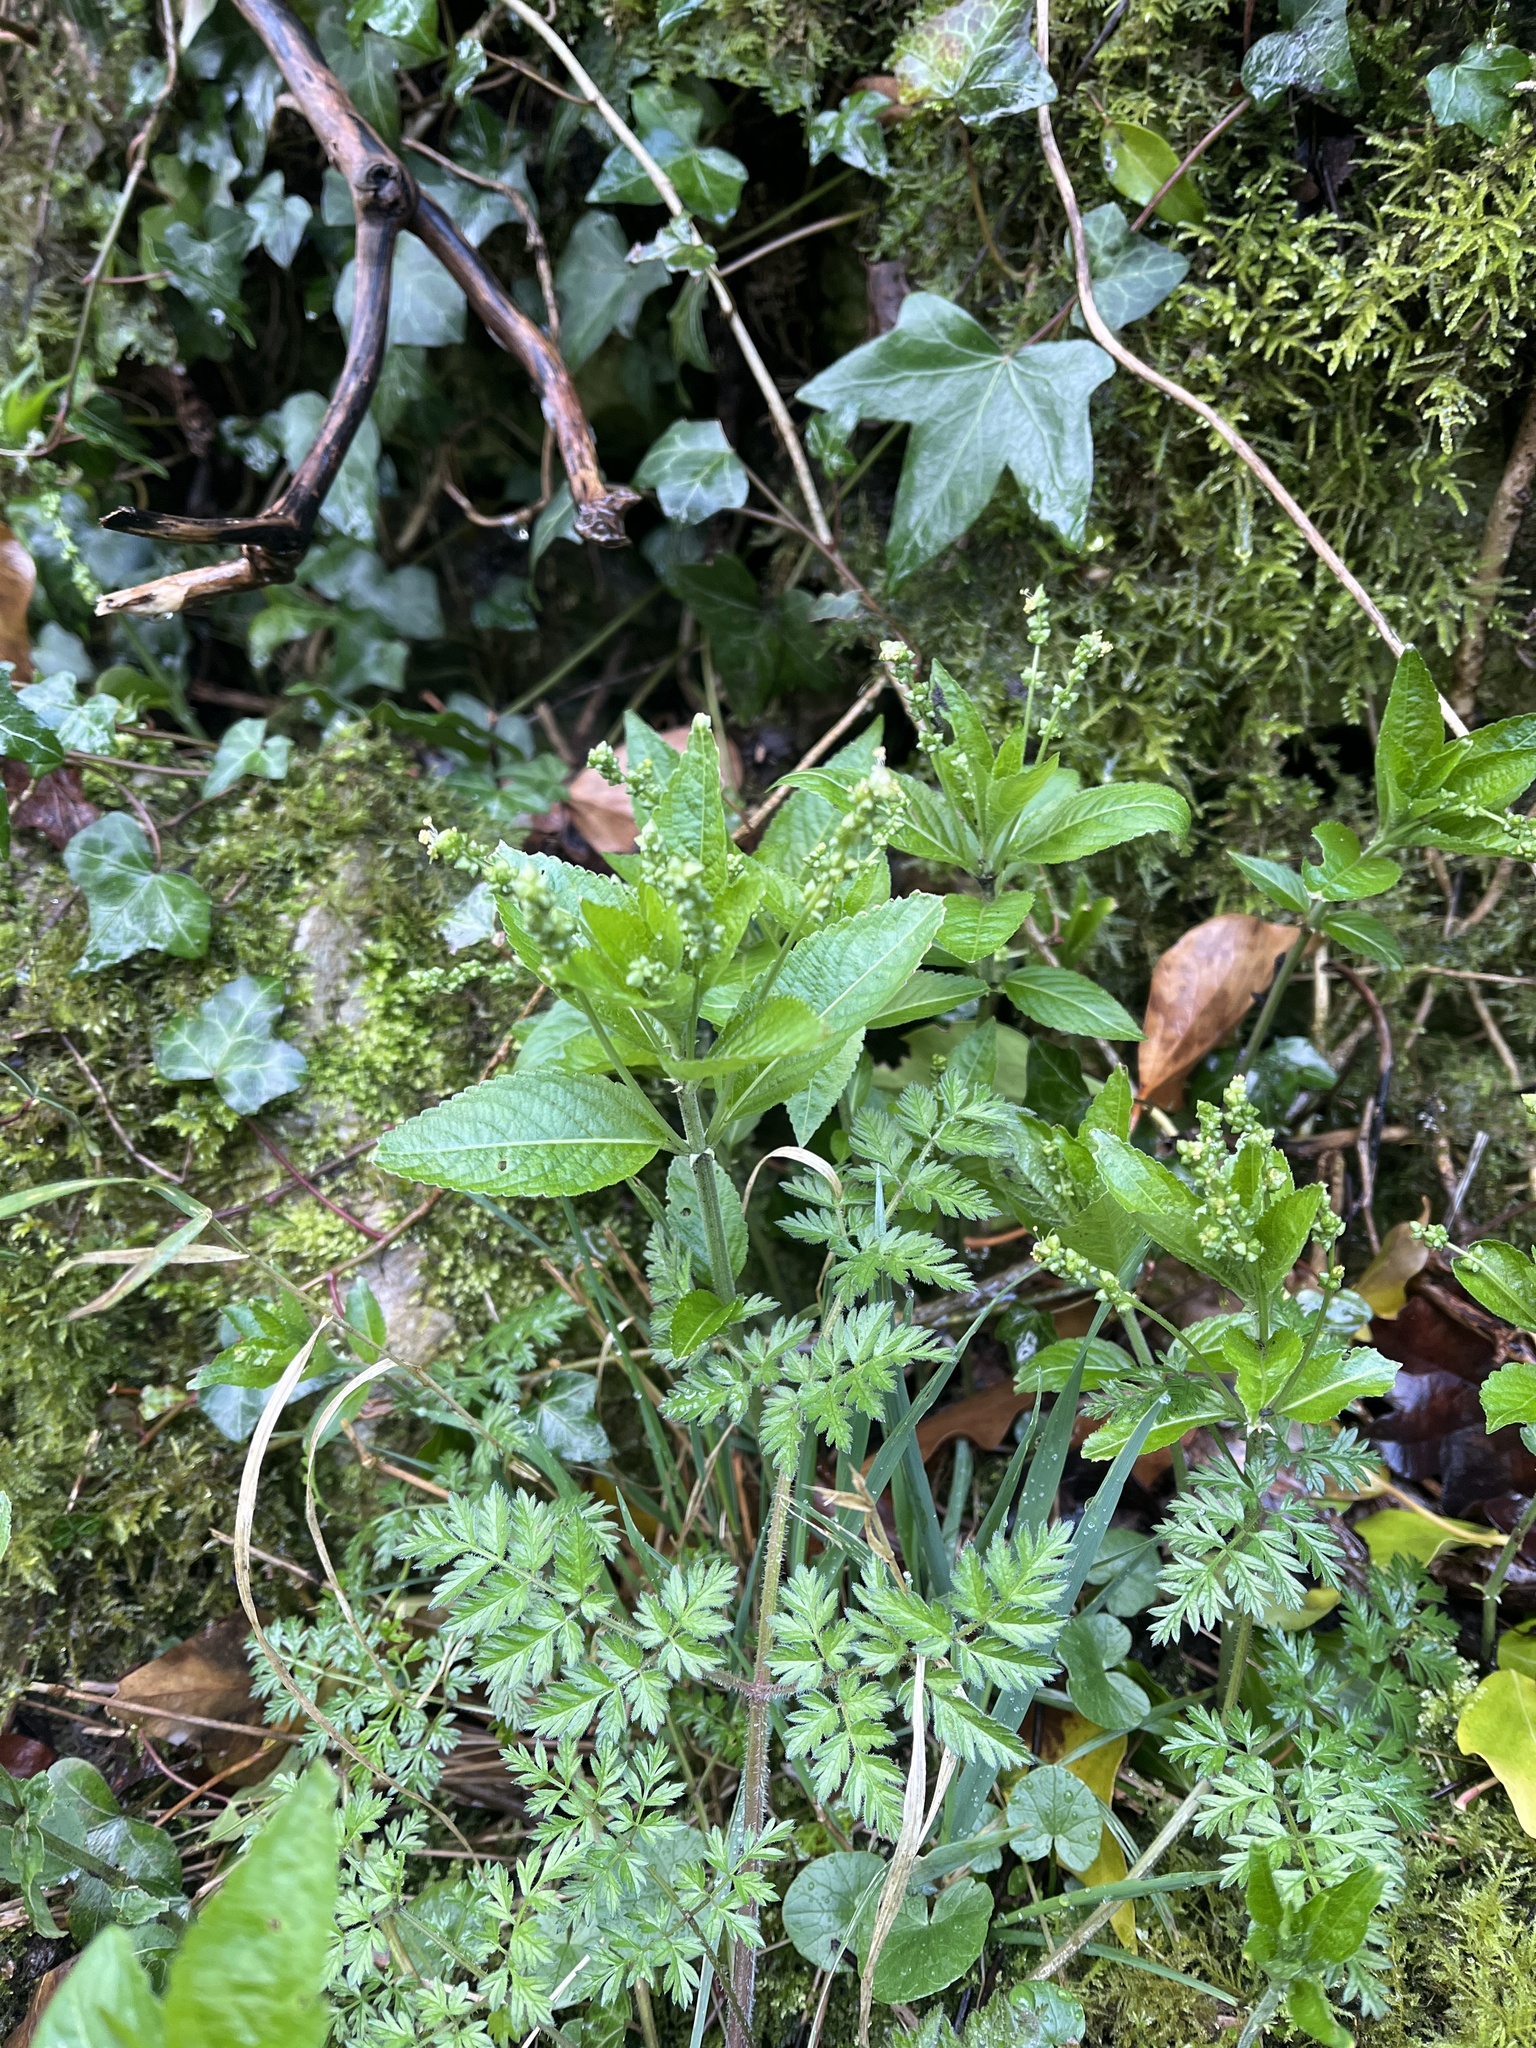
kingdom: Plantae
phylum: Tracheophyta
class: Magnoliopsida
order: Malpighiales
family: Euphorbiaceae
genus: Mercurialis
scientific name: Mercurialis perennis
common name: Dog mercury
